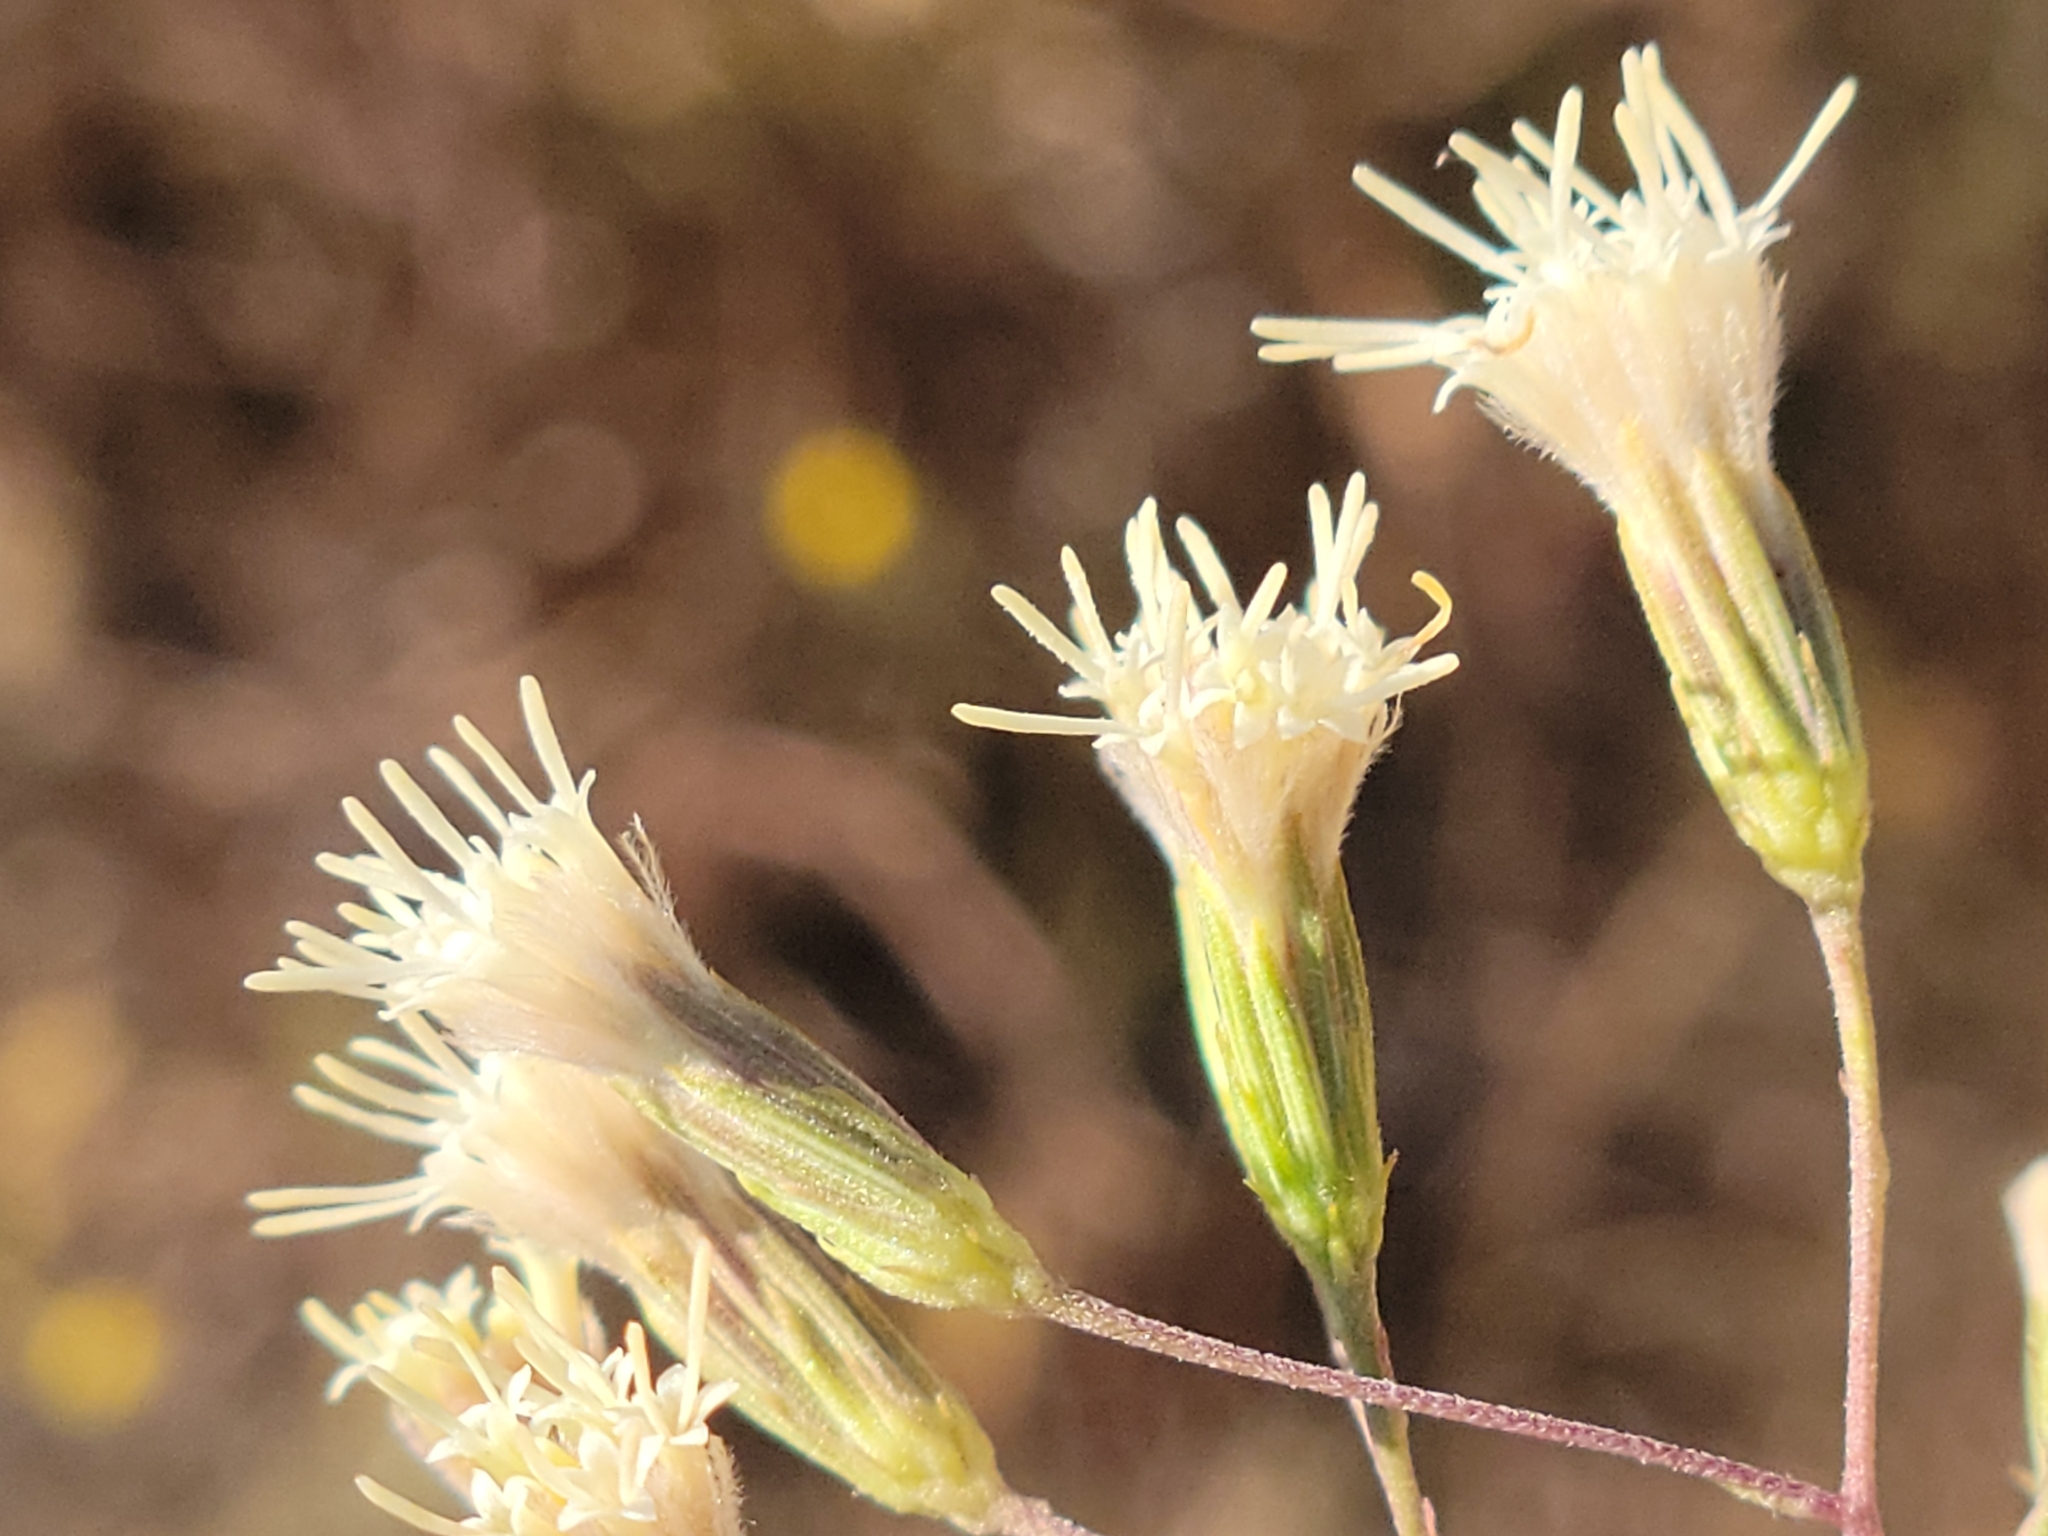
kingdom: Plantae
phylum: Tracheophyta
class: Magnoliopsida
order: Asterales
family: Asteraceae
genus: Brickellia
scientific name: Brickellia eupatorioides
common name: False boneset
